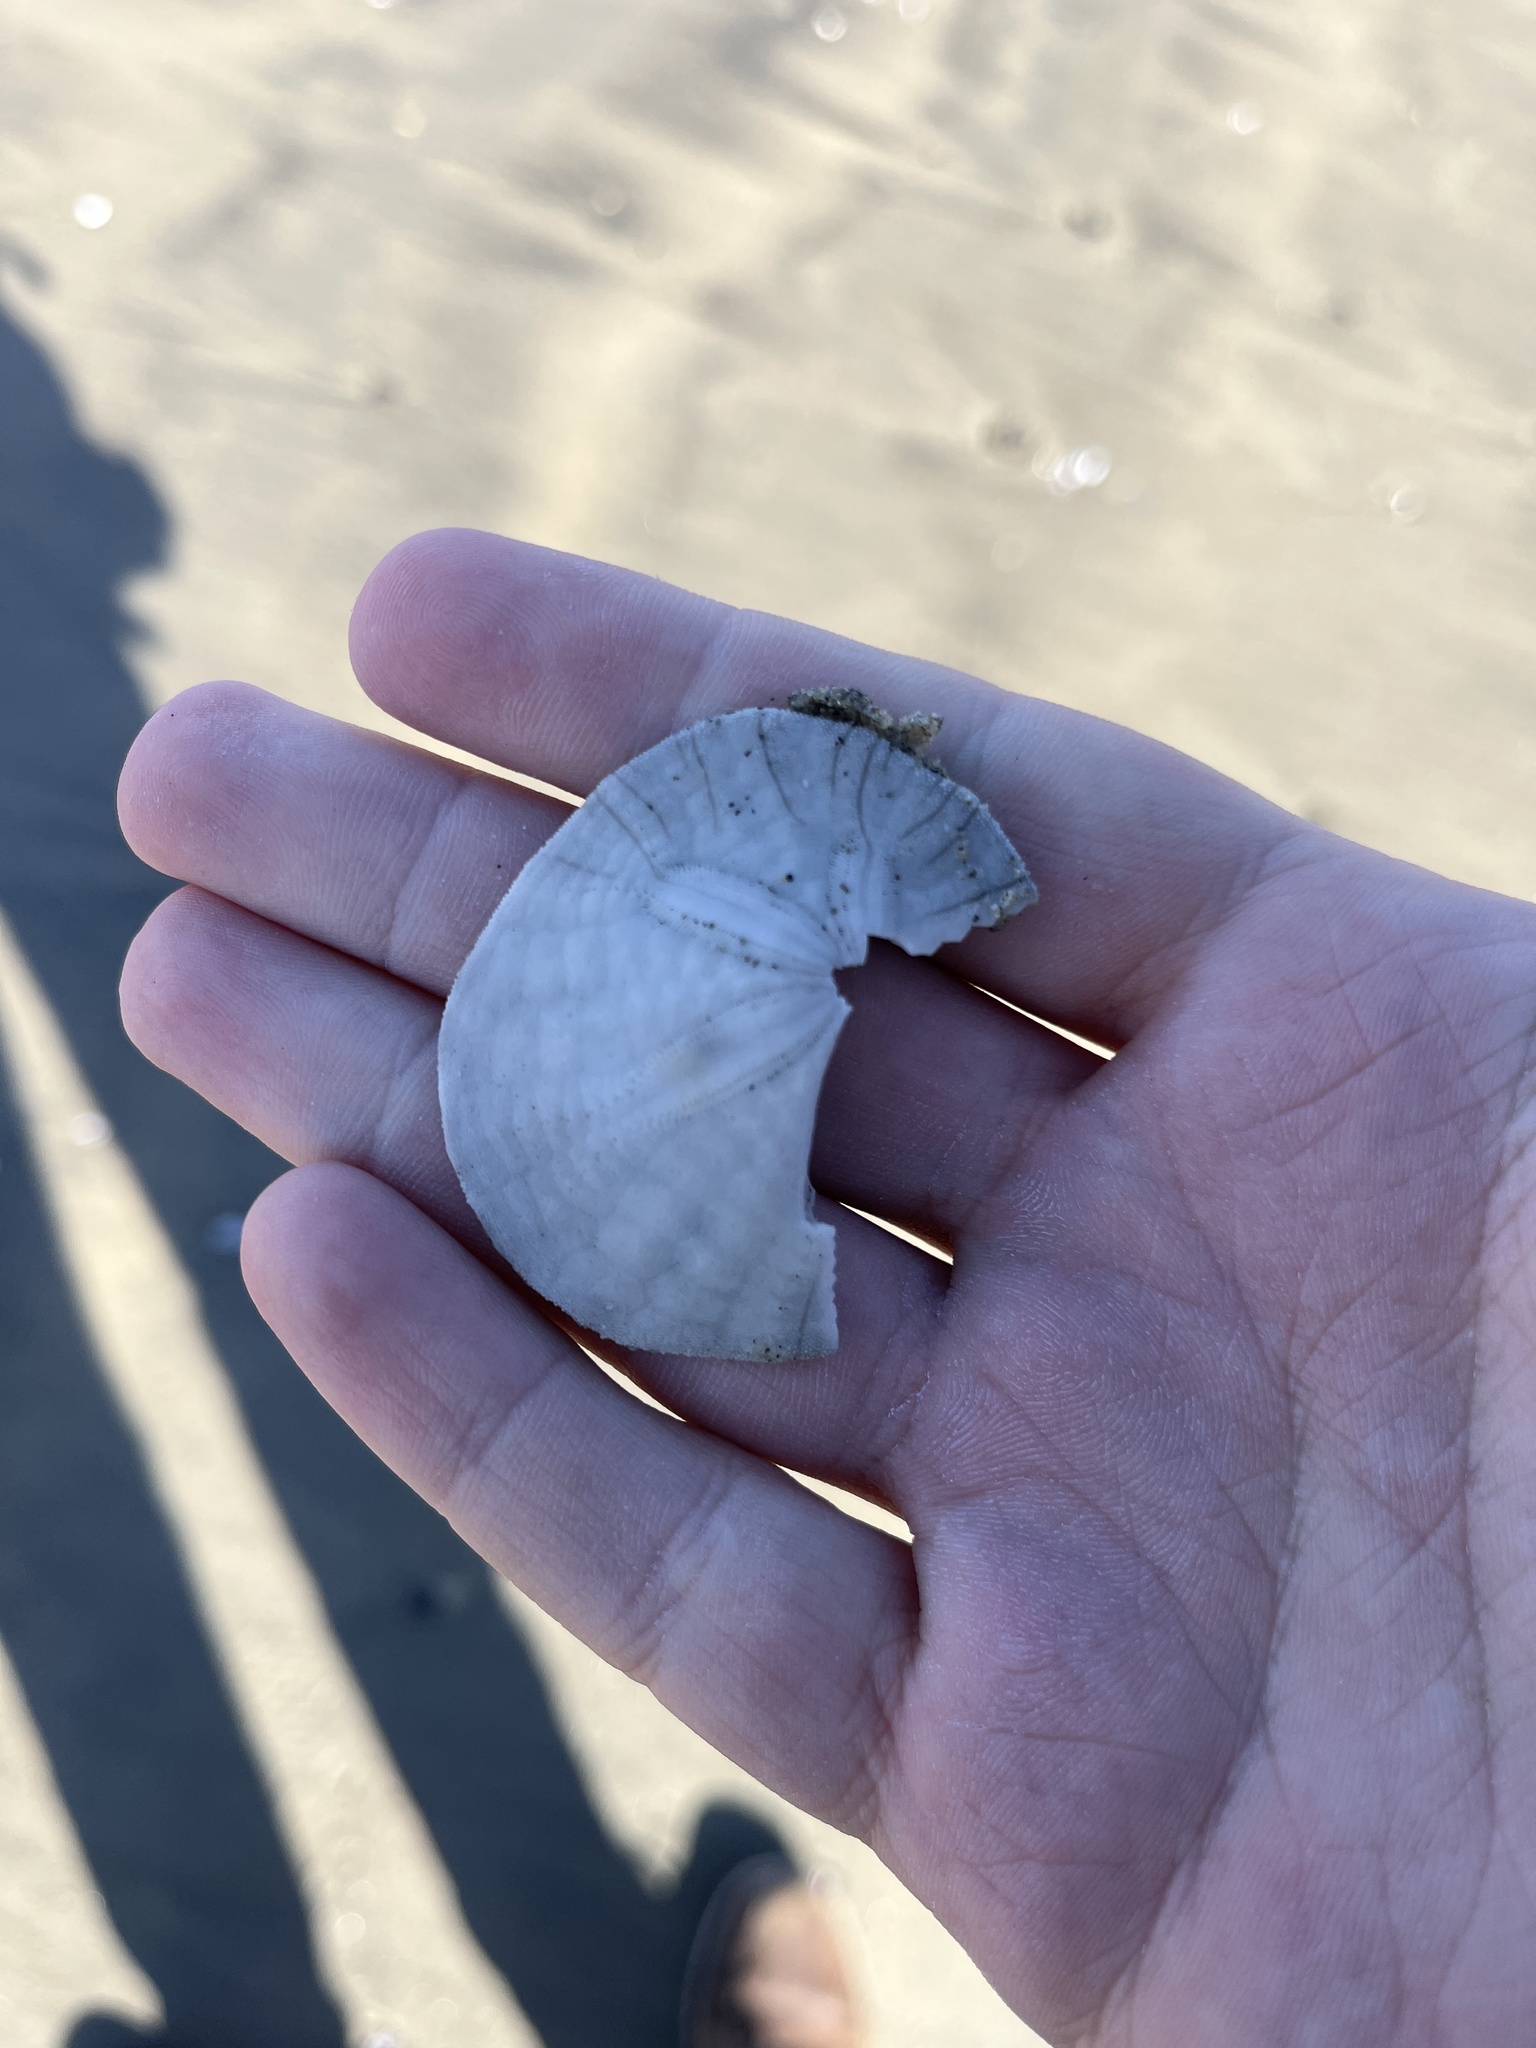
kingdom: Animalia
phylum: Echinodermata
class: Echinoidea
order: Echinolampadacea
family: Dendrasteridae
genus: Dendraster
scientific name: Dendraster excentricus
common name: Eccentric sand dollar sea urchin
